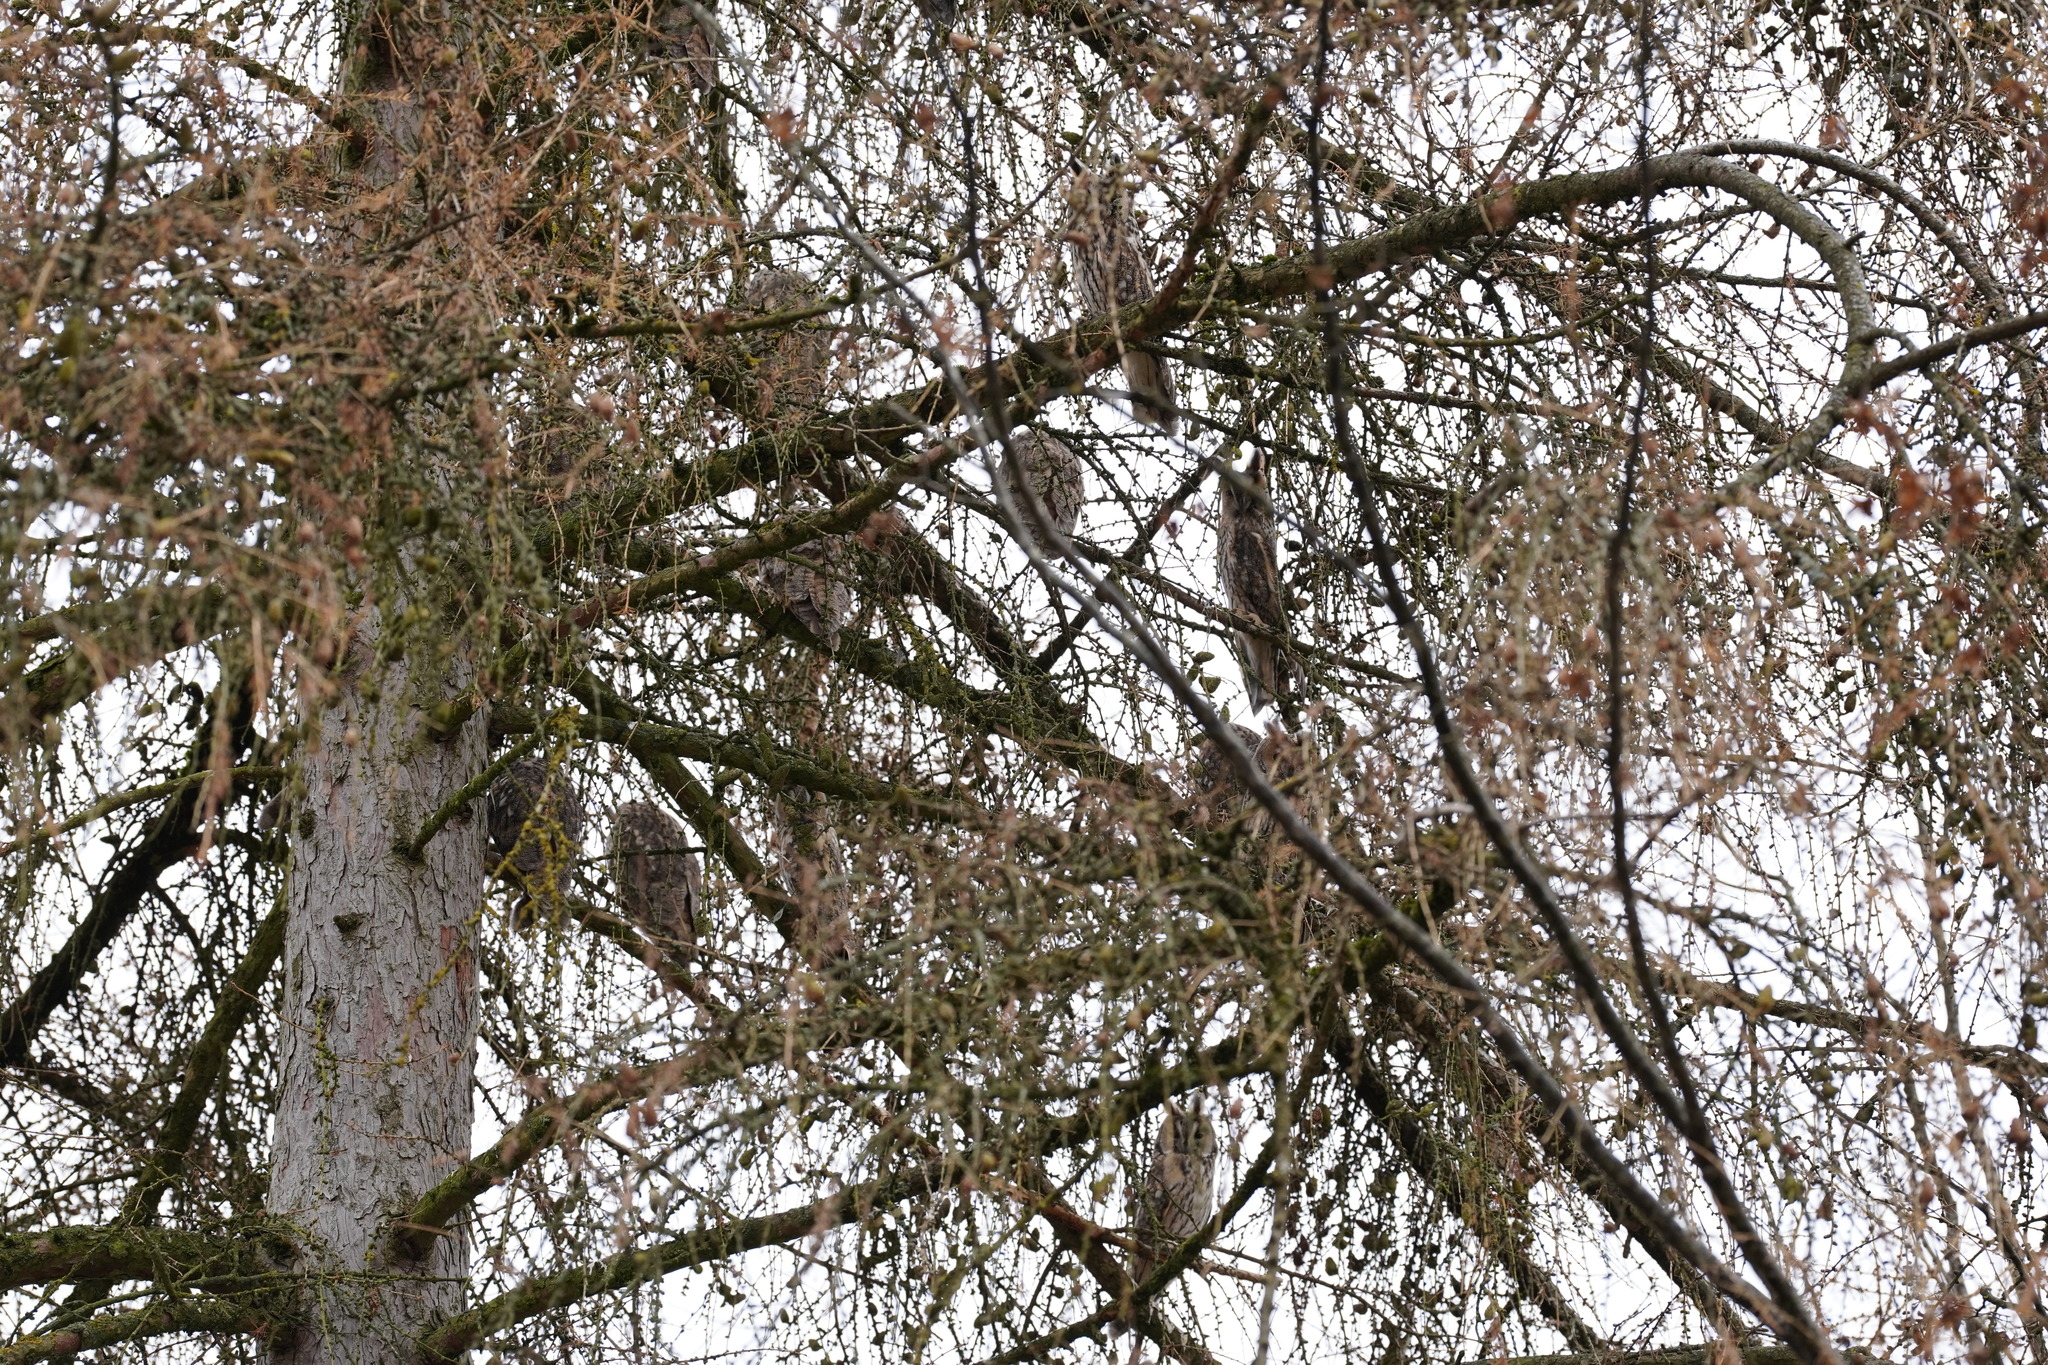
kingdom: Animalia
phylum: Chordata
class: Aves
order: Strigiformes
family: Strigidae
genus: Asio
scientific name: Asio otus
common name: Long-eared owl
